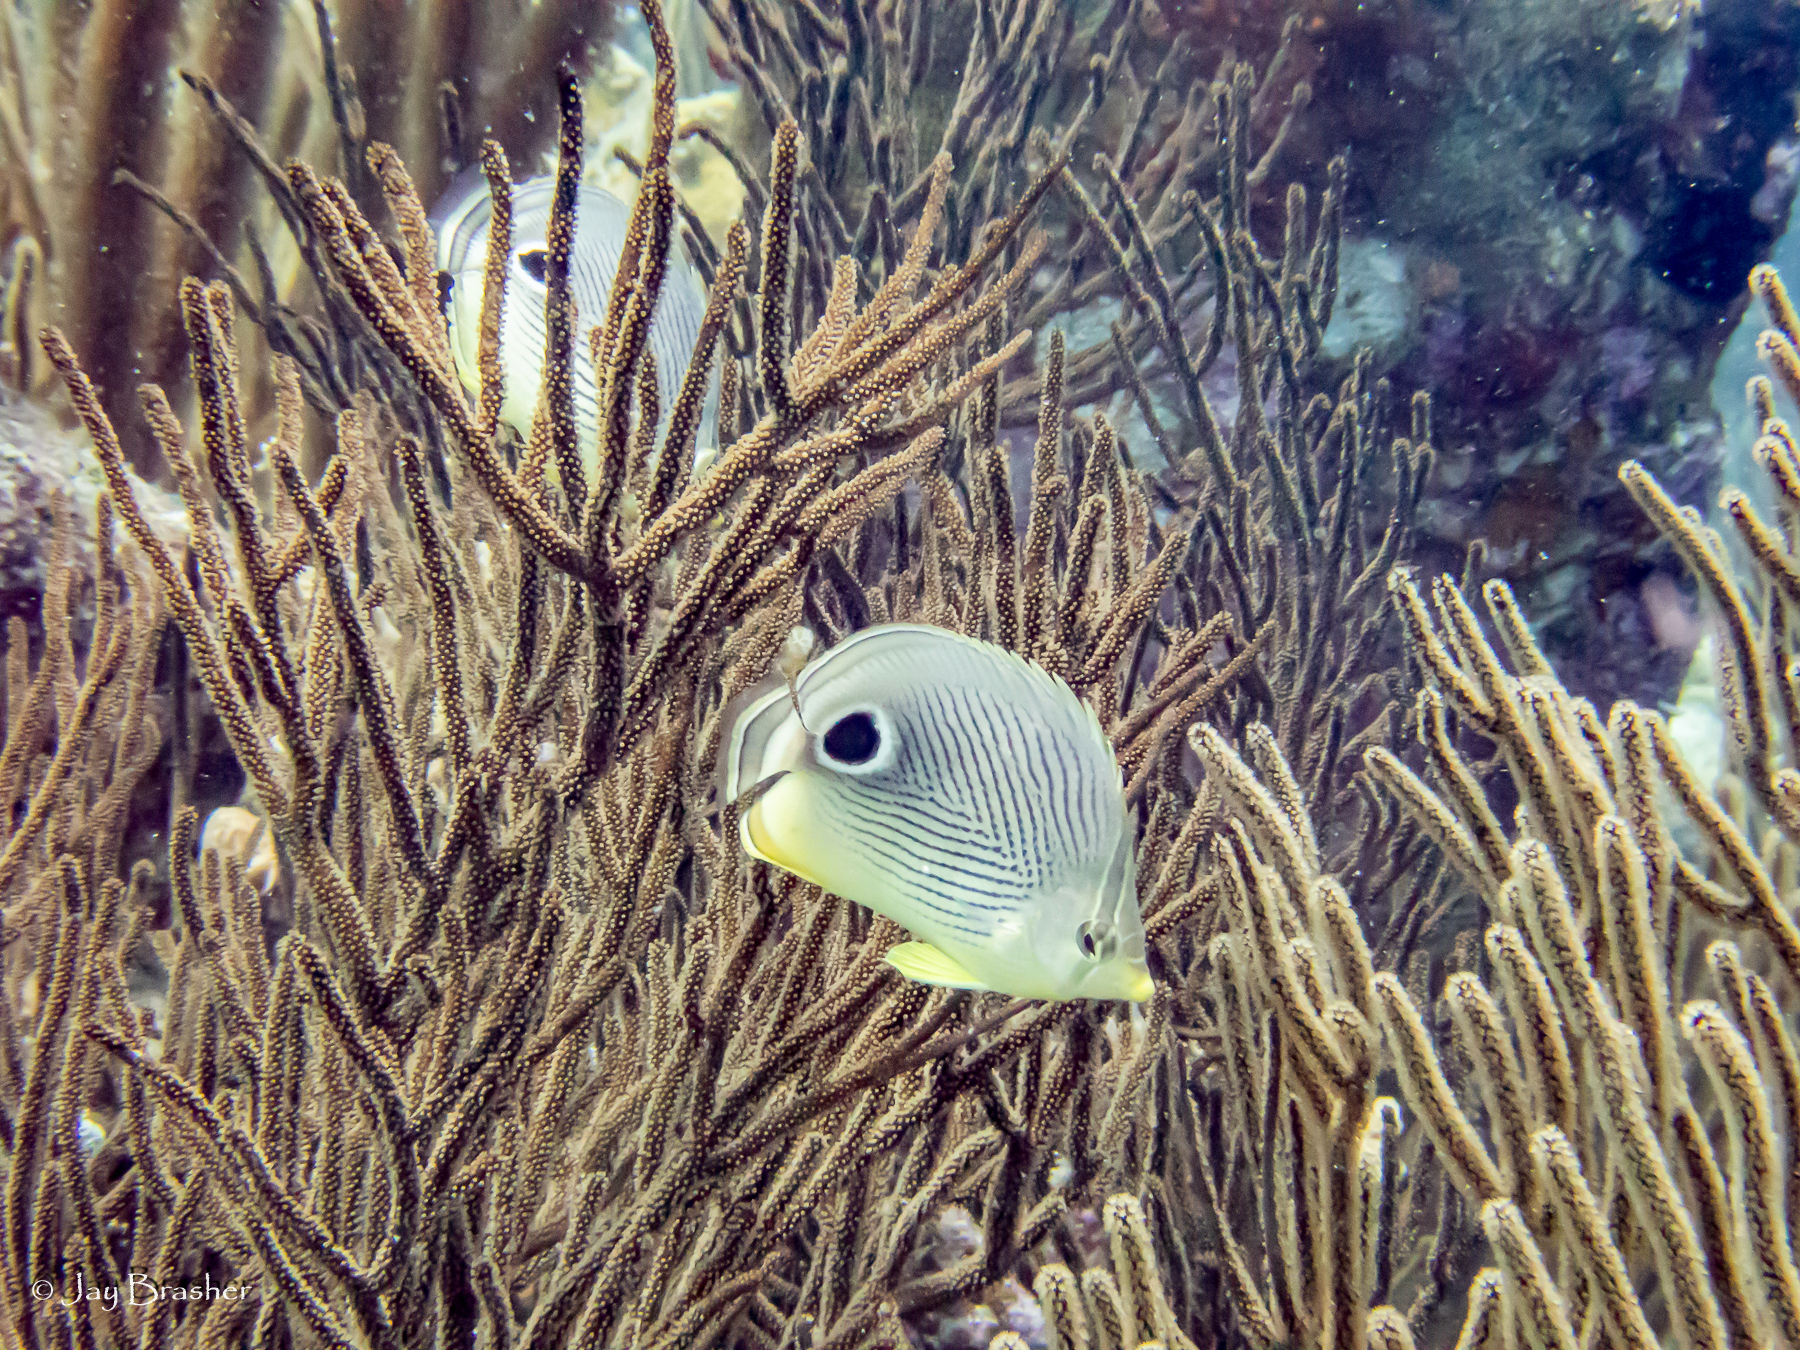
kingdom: Animalia
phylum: Chordata
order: Perciformes
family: Chaetodontidae
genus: Chaetodon
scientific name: Chaetodon capistratus
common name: Kete
